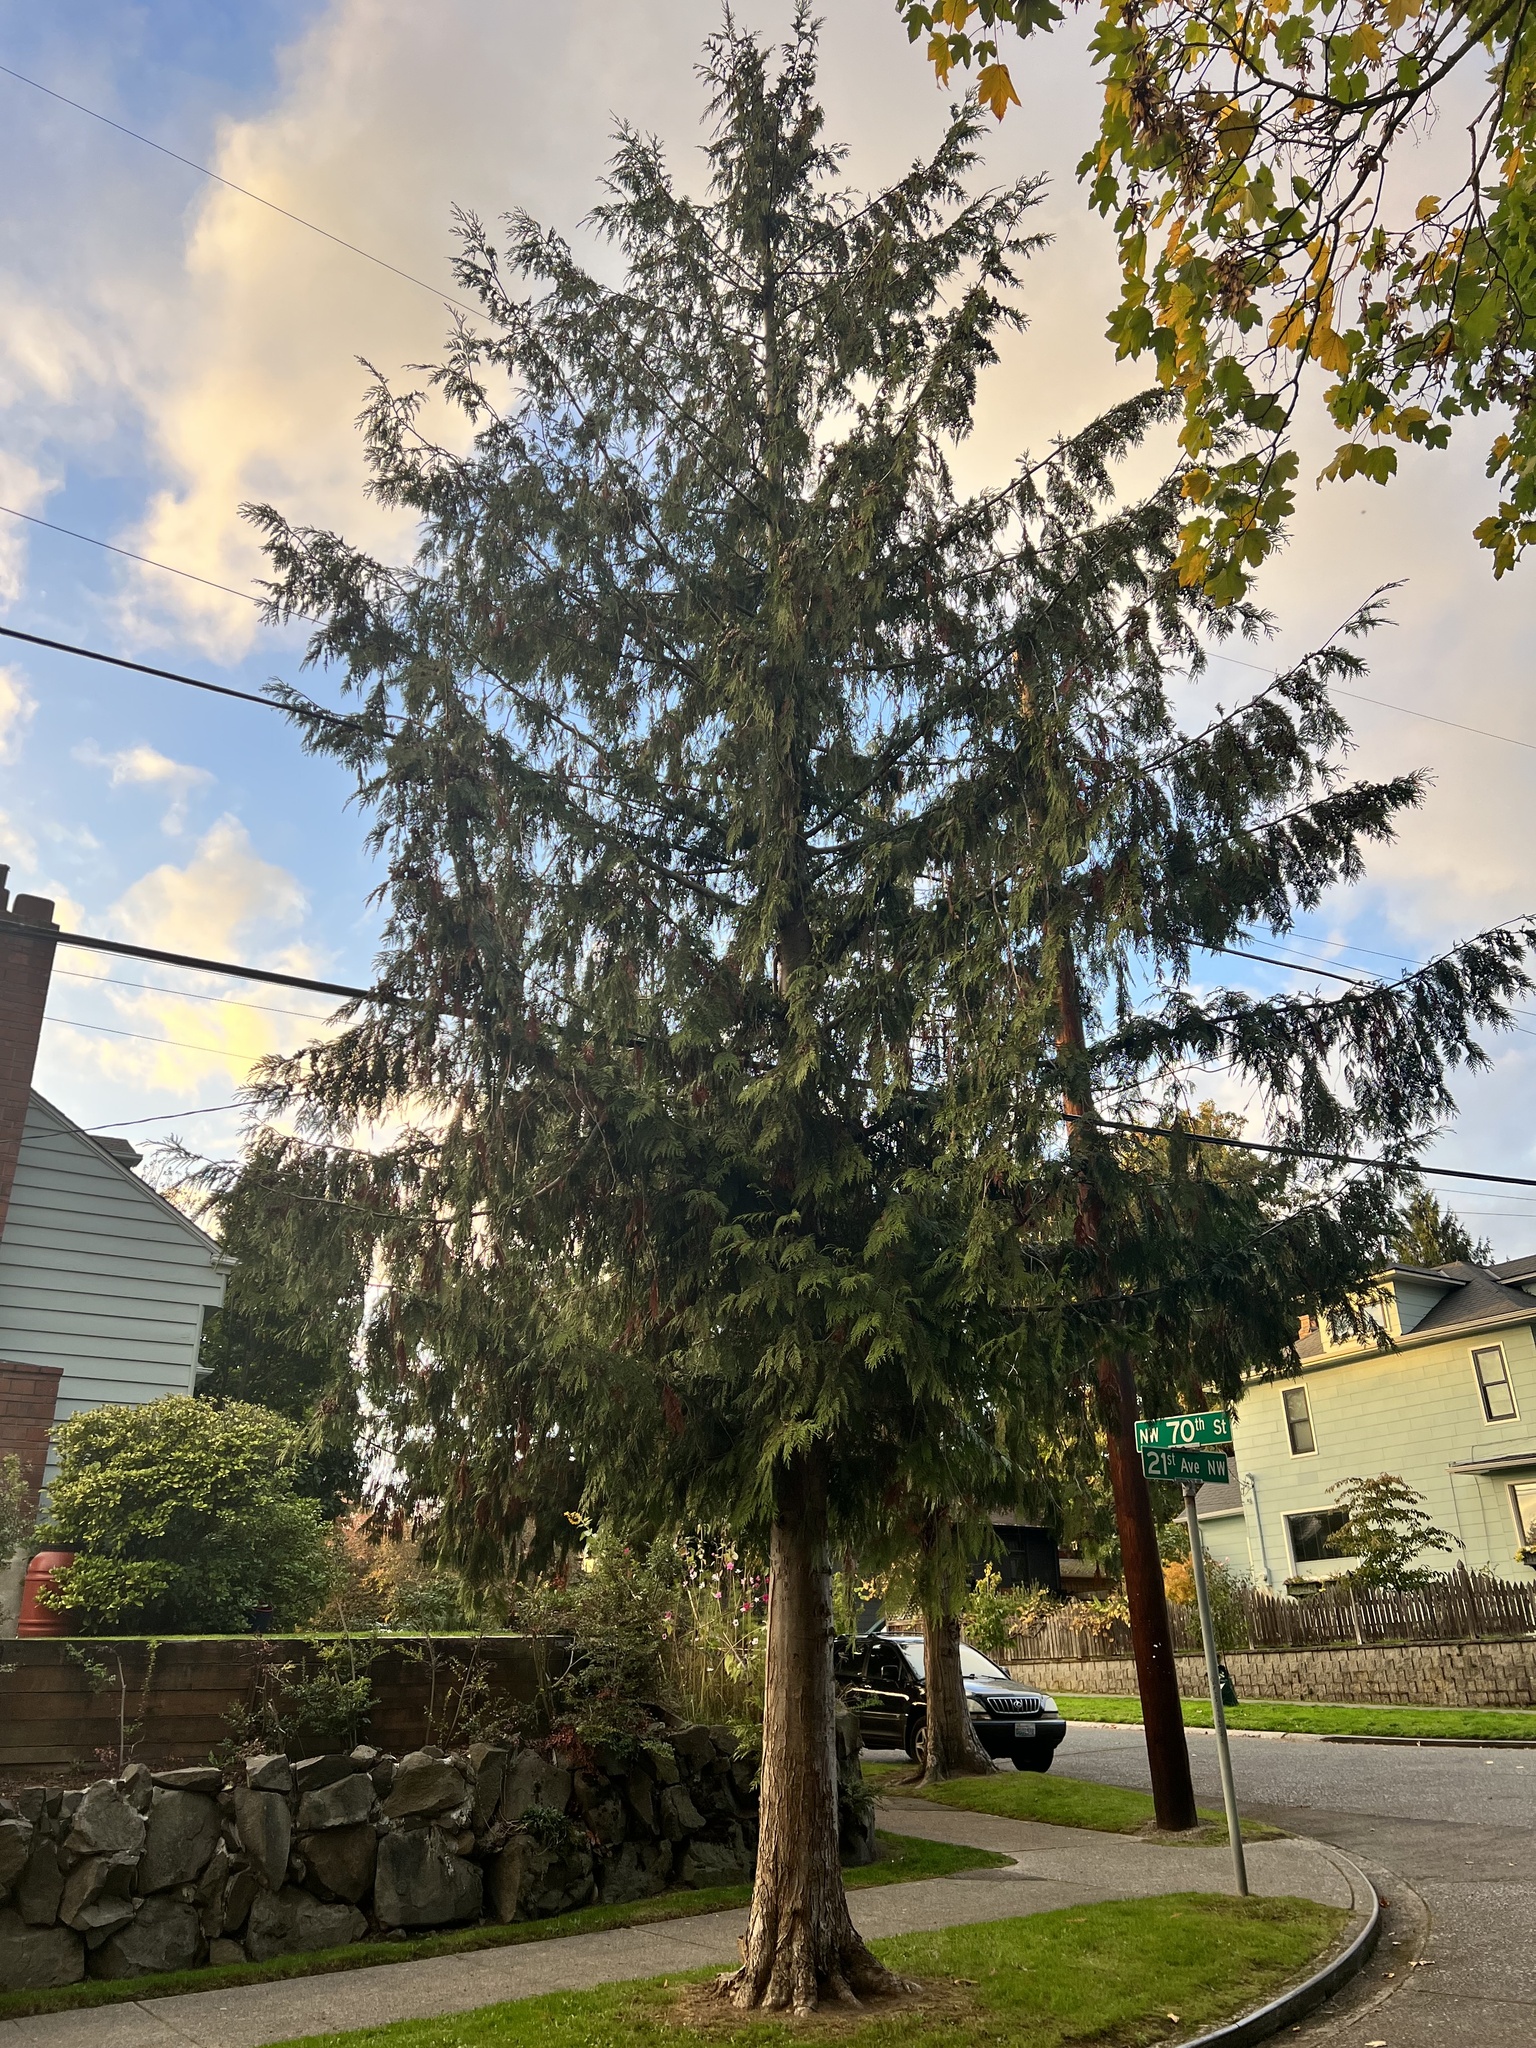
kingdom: Plantae
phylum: Tracheophyta
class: Pinopsida
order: Pinales
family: Cupressaceae
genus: Thuja
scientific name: Thuja plicata
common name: Western red-cedar
